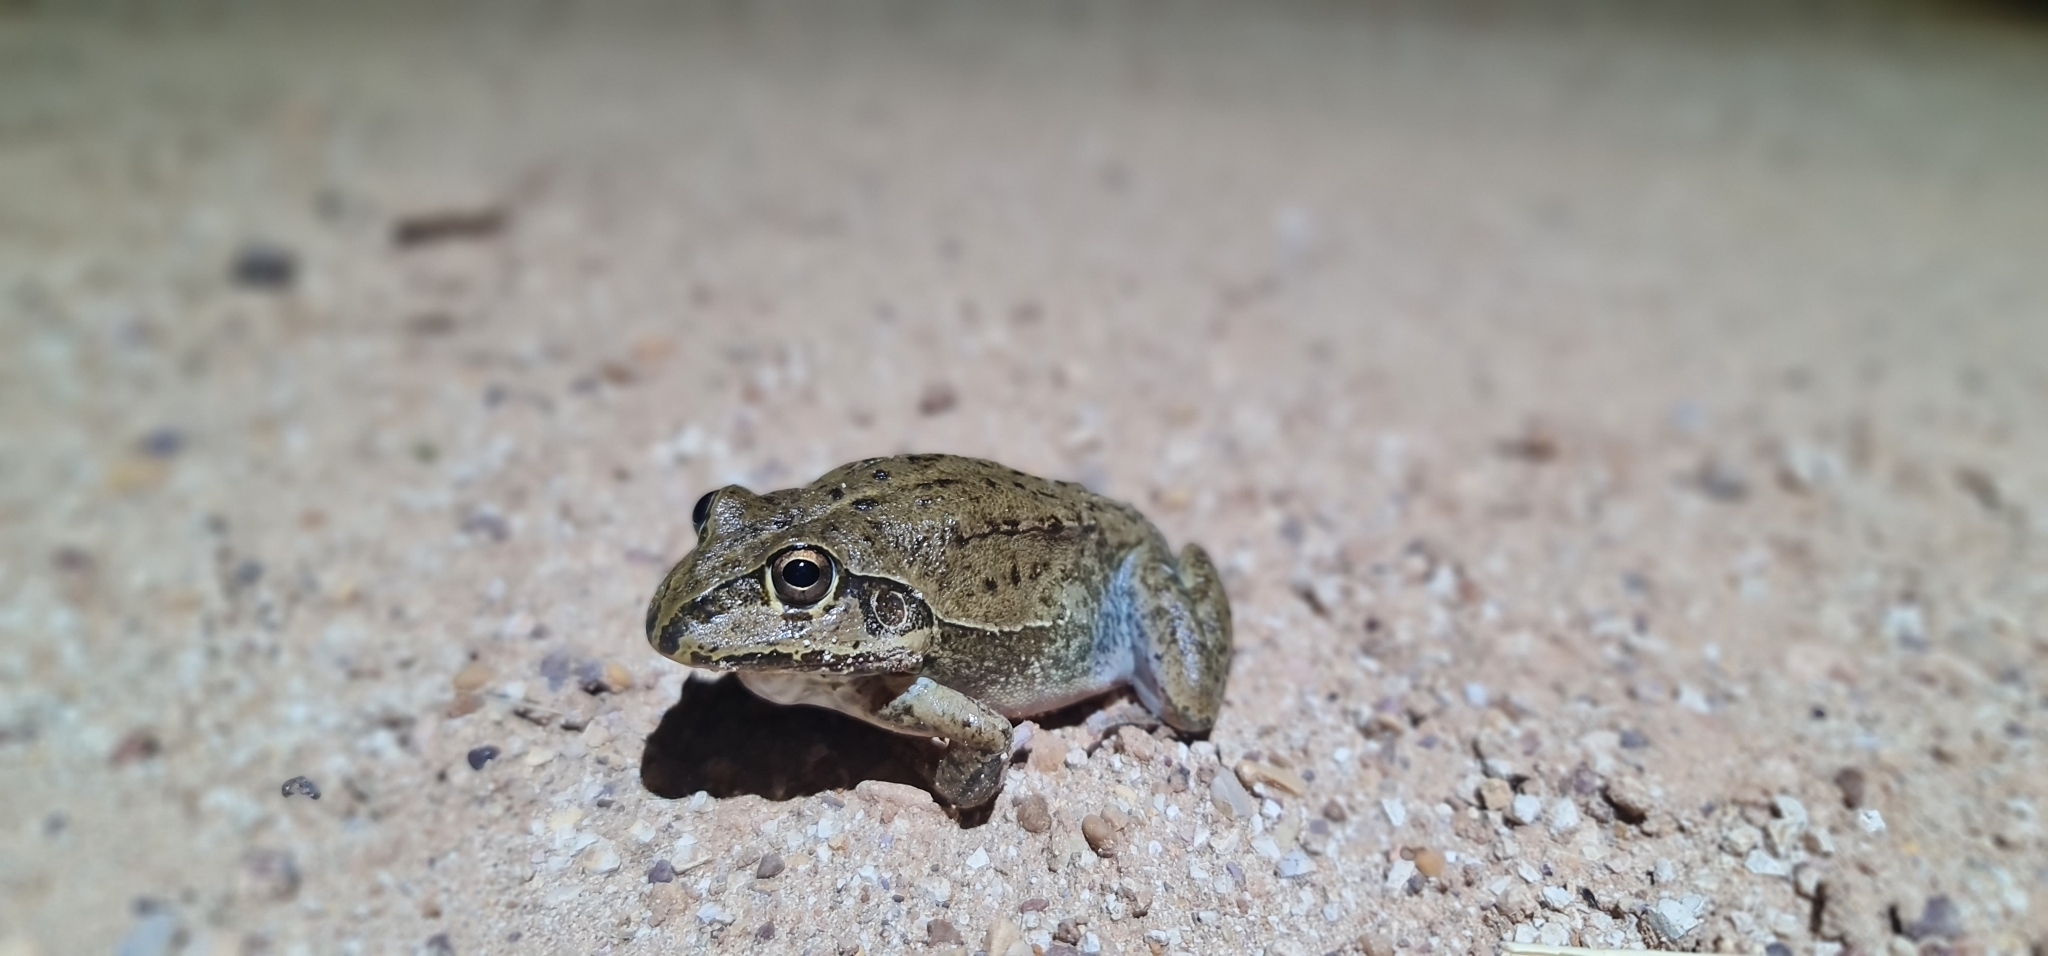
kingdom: Animalia
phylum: Chordata
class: Amphibia
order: Anura
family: Pelodryadidae
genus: Ranoidea
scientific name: Ranoidea novaehollandiae
